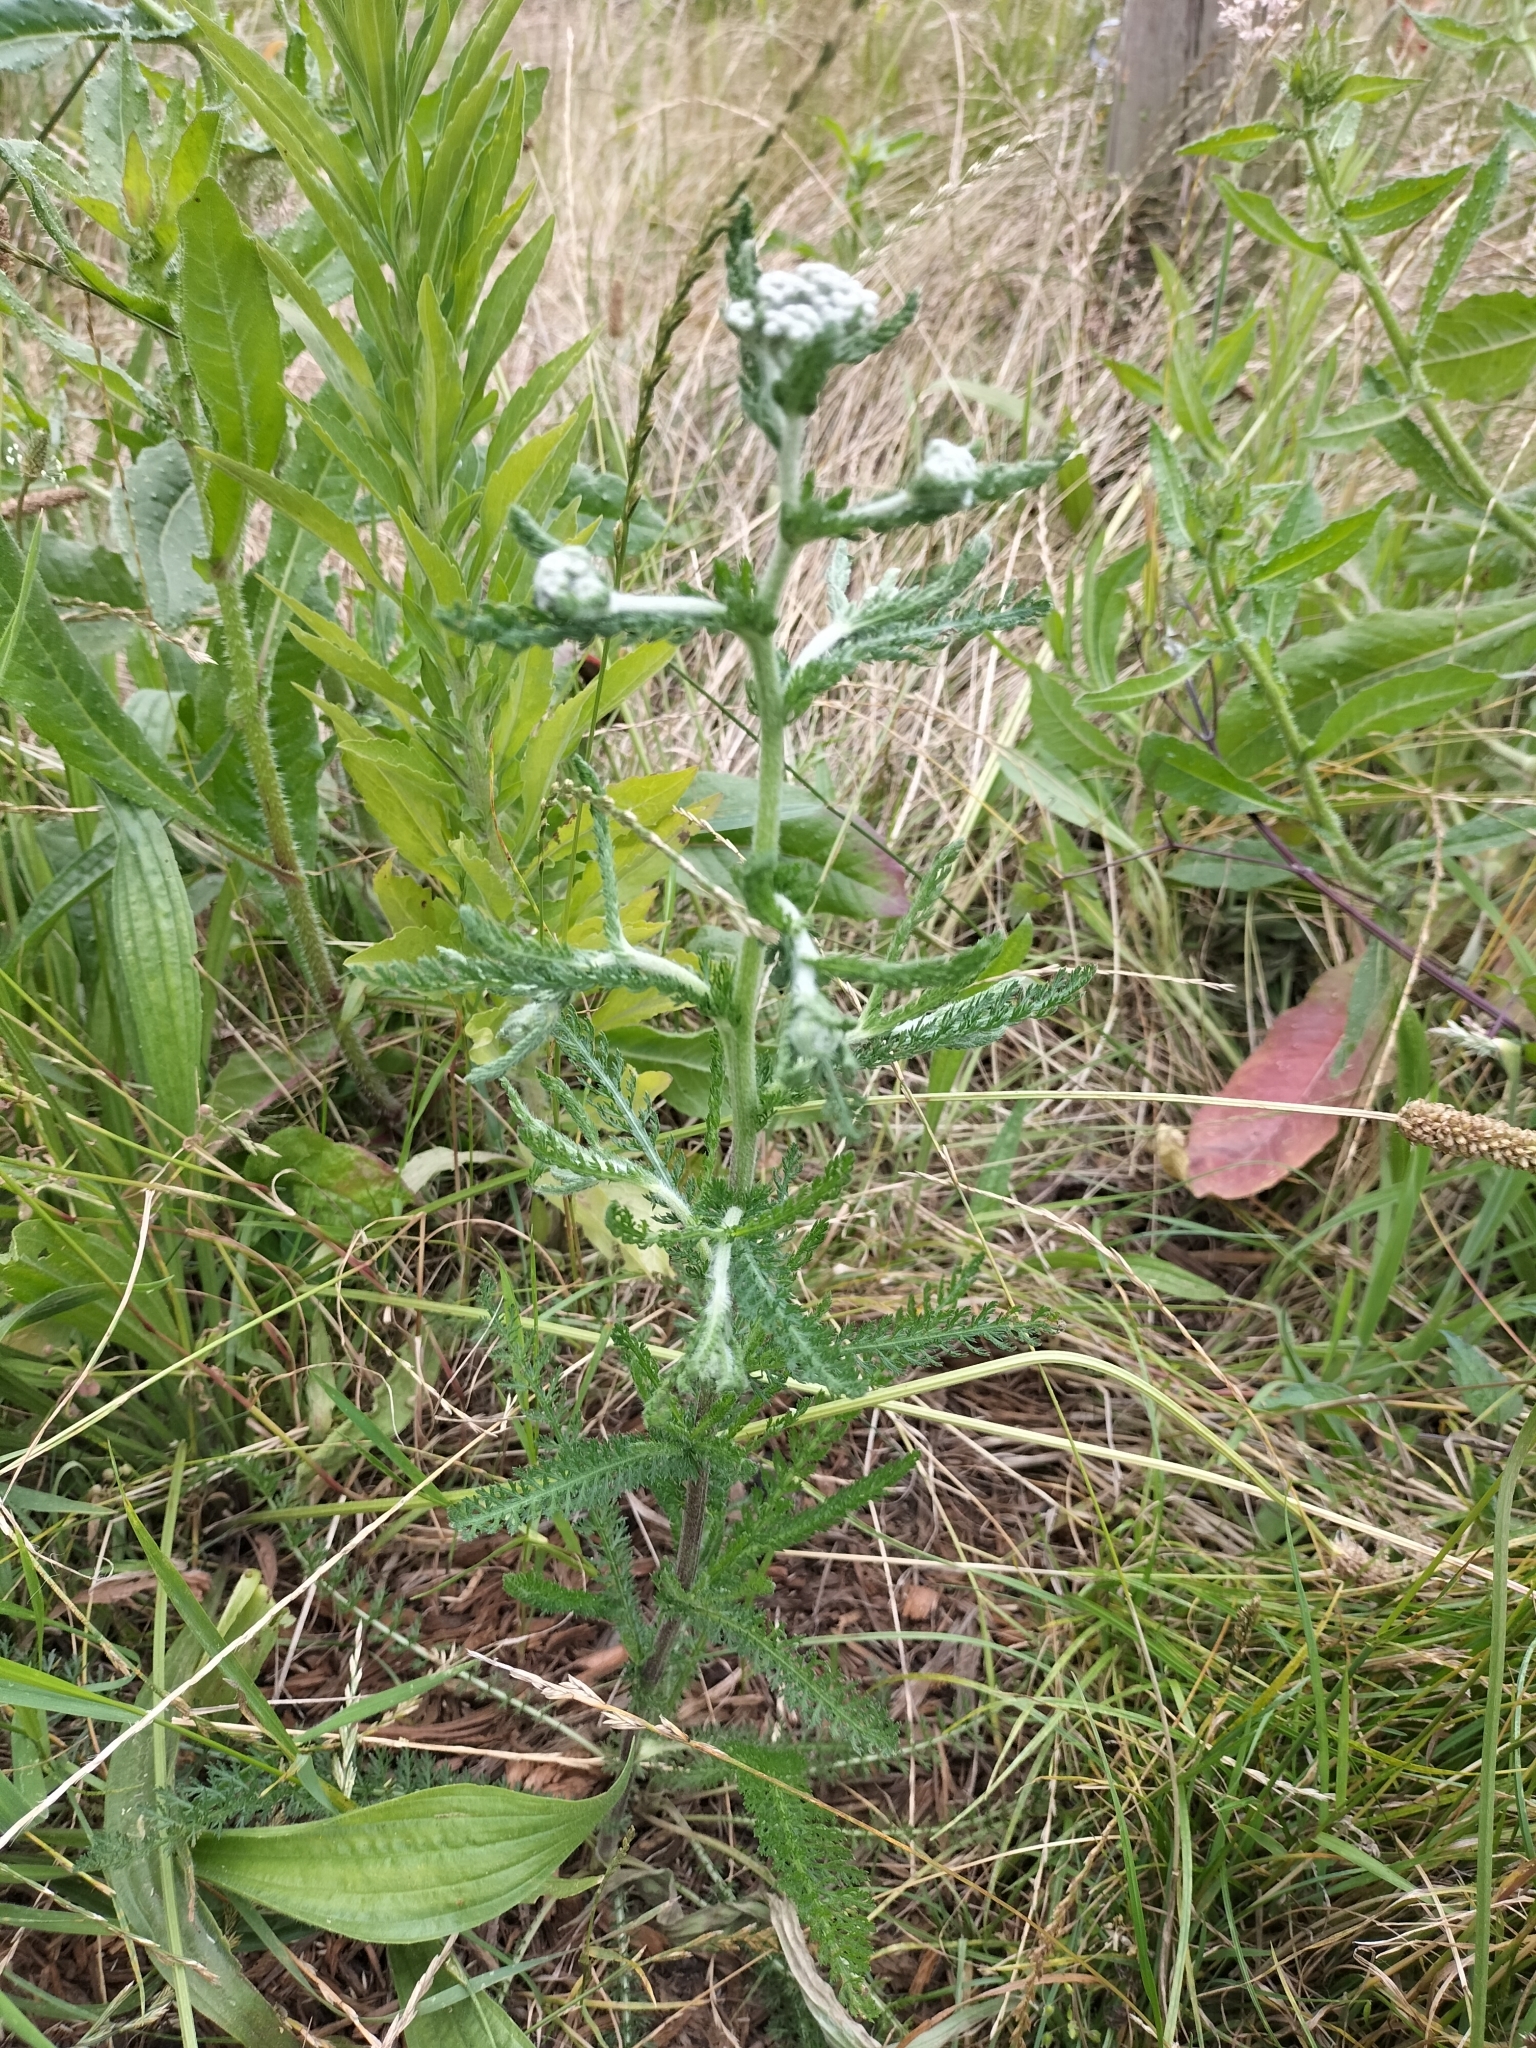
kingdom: Plantae
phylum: Tracheophyta
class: Magnoliopsida
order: Asterales
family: Asteraceae
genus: Achillea
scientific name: Achillea millefolium
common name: Yarrow
